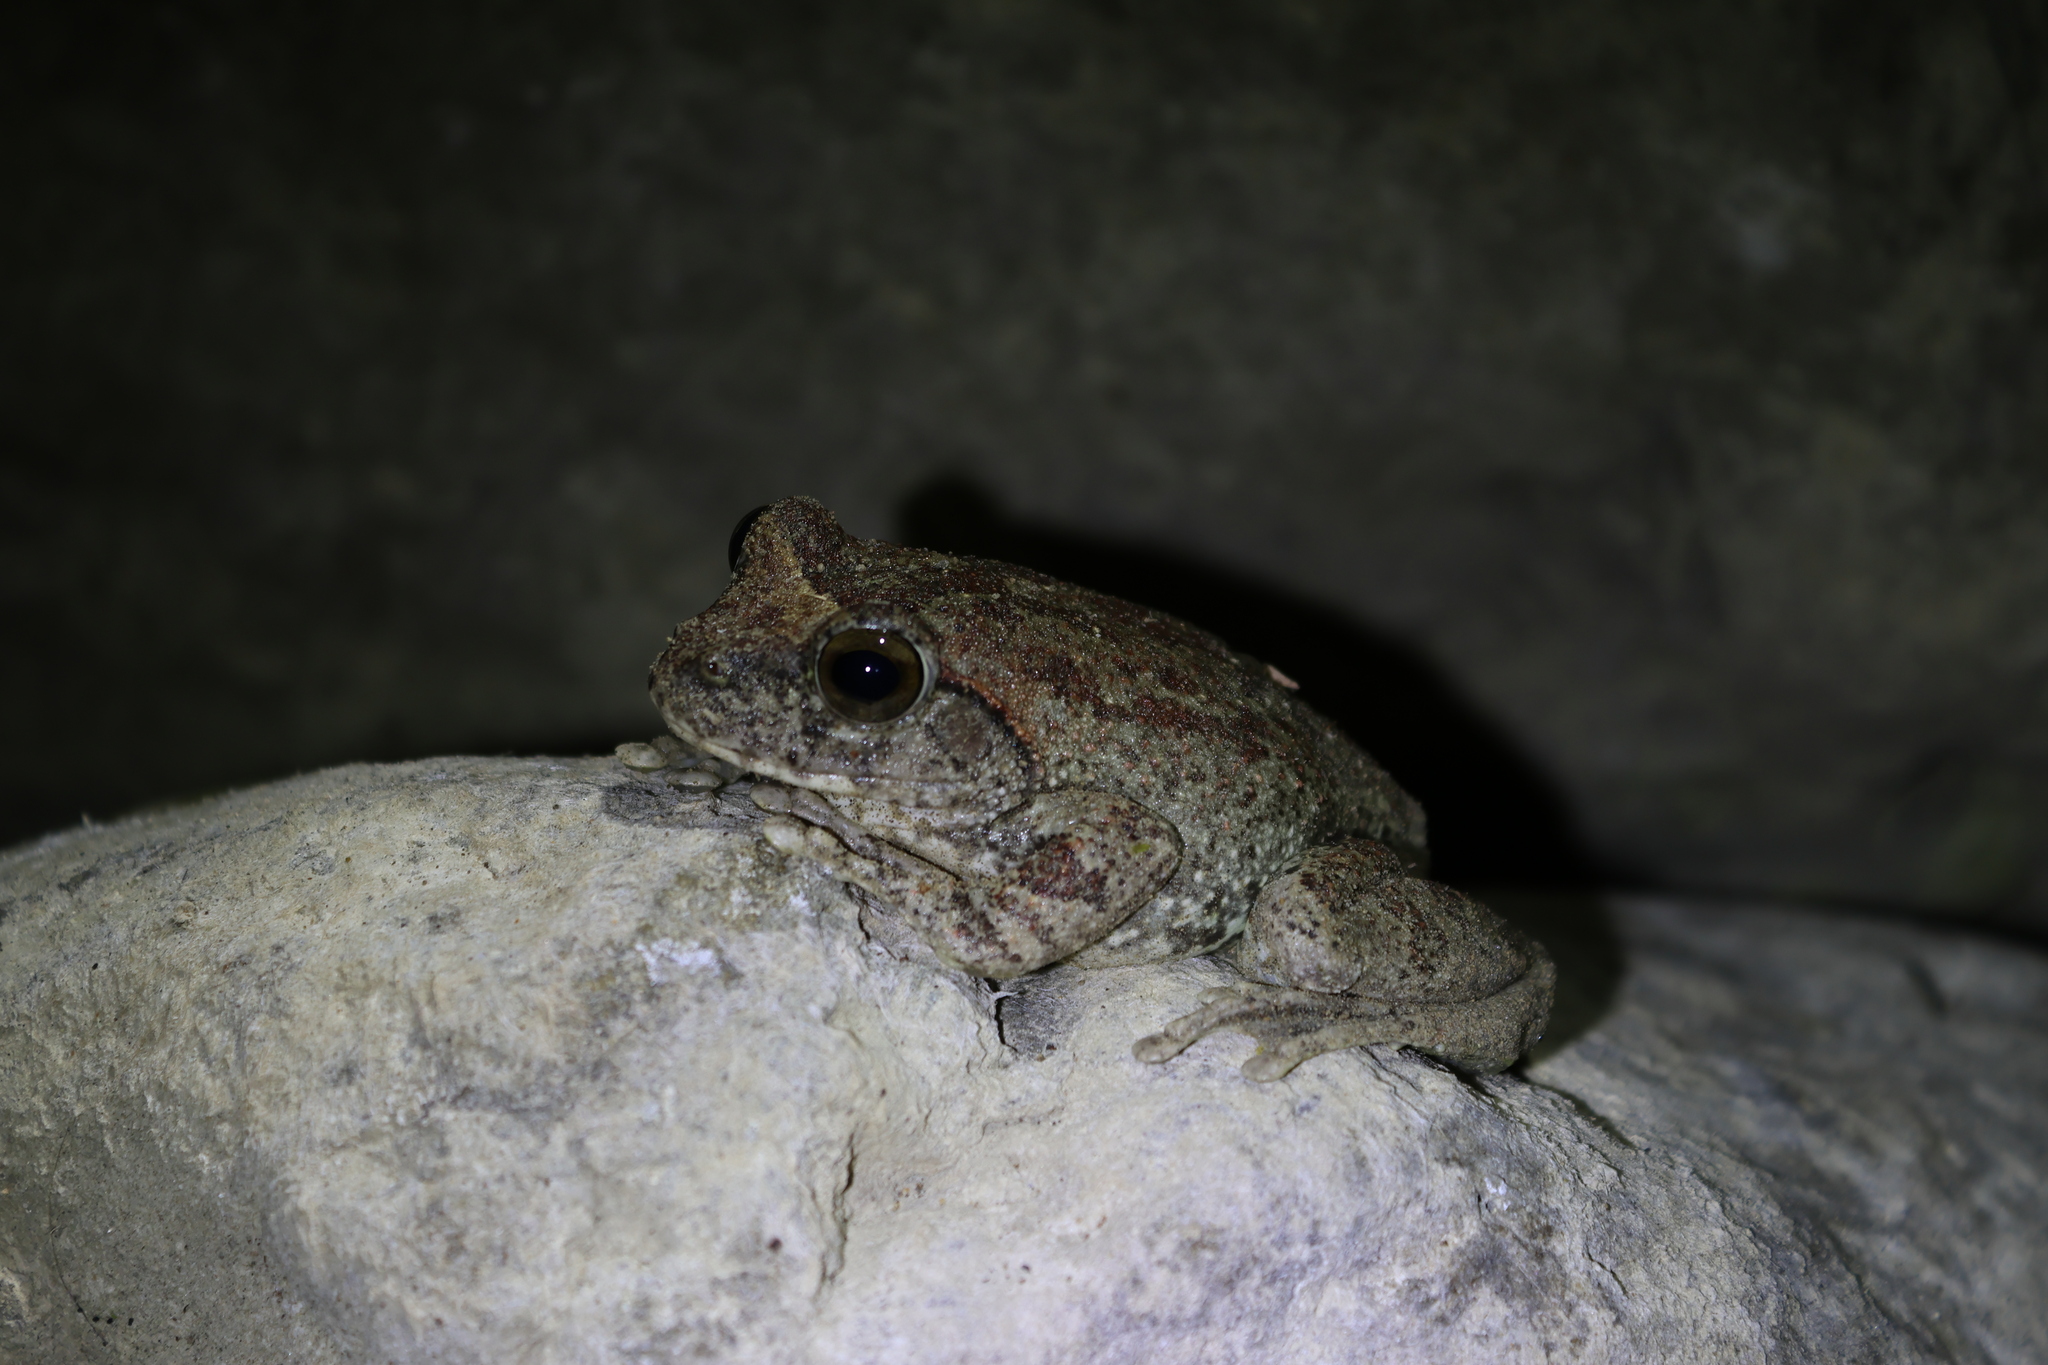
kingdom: Animalia
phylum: Chordata
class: Amphibia
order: Anura
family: Rhacophoridae
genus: Buergeria
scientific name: Buergeria robusta
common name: Brown treefrog
